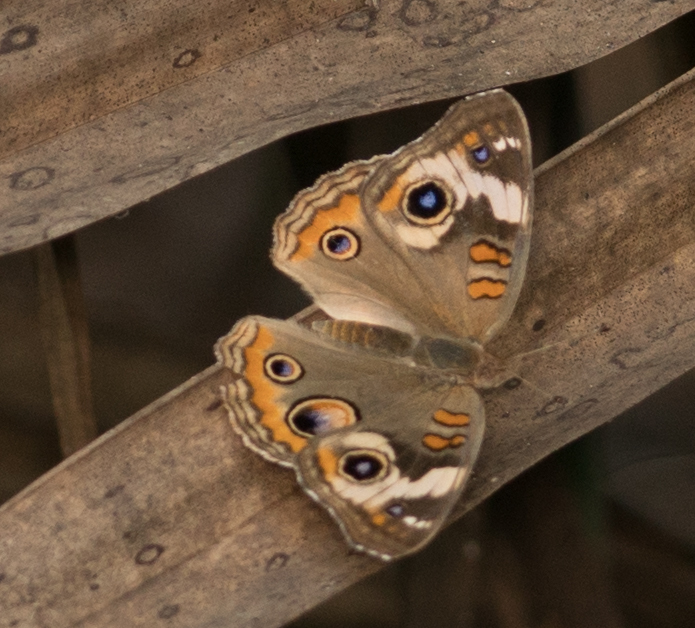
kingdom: Animalia
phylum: Arthropoda
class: Insecta
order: Lepidoptera
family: Nymphalidae
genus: Junonia
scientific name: Junonia coenia
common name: Common buckeye
